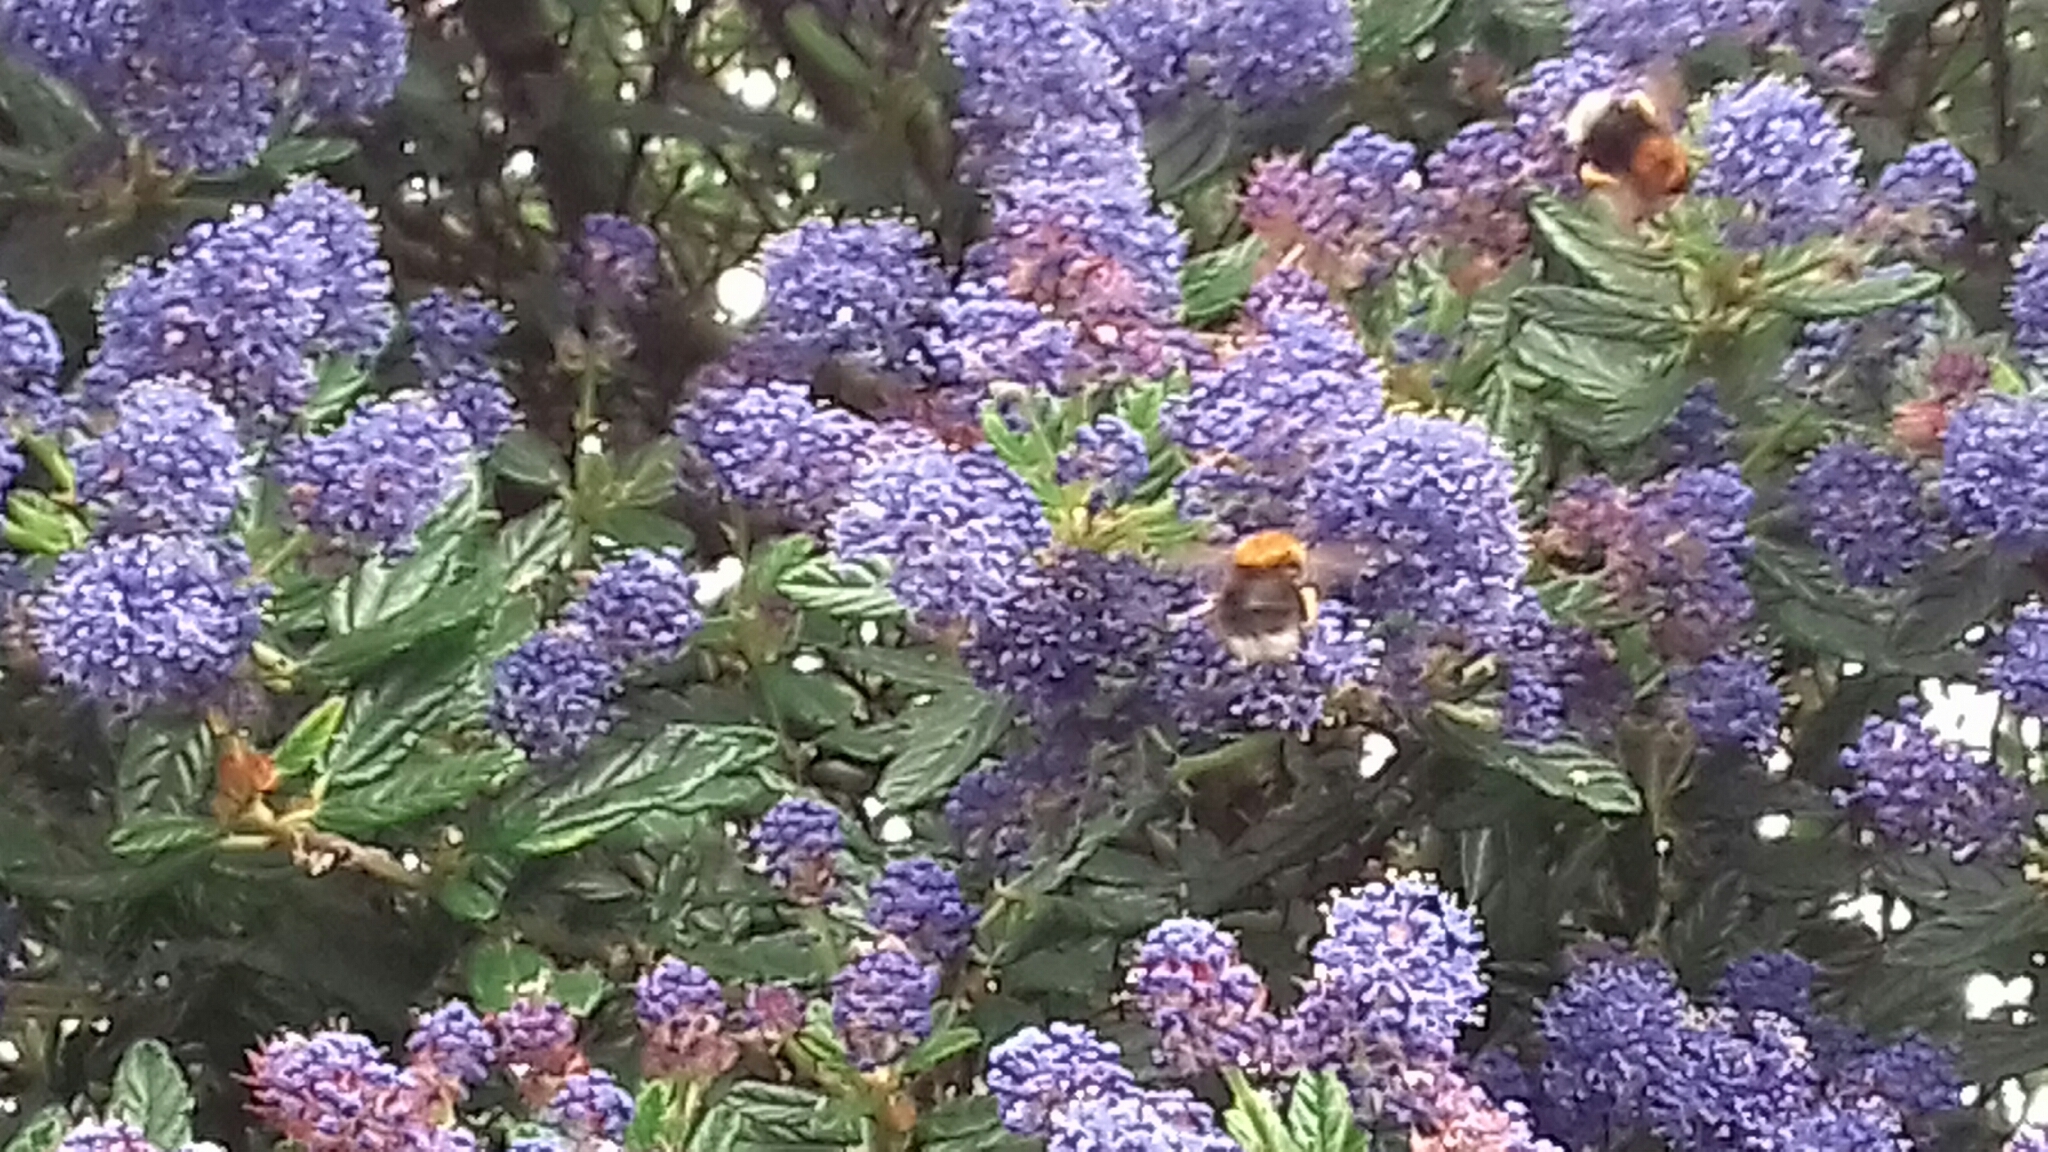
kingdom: Animalia
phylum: Arthropoda
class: Insecta
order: Hymenoptera
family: Apidae
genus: Bombus
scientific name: Bombus hypnorum
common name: New garden bumblebee
